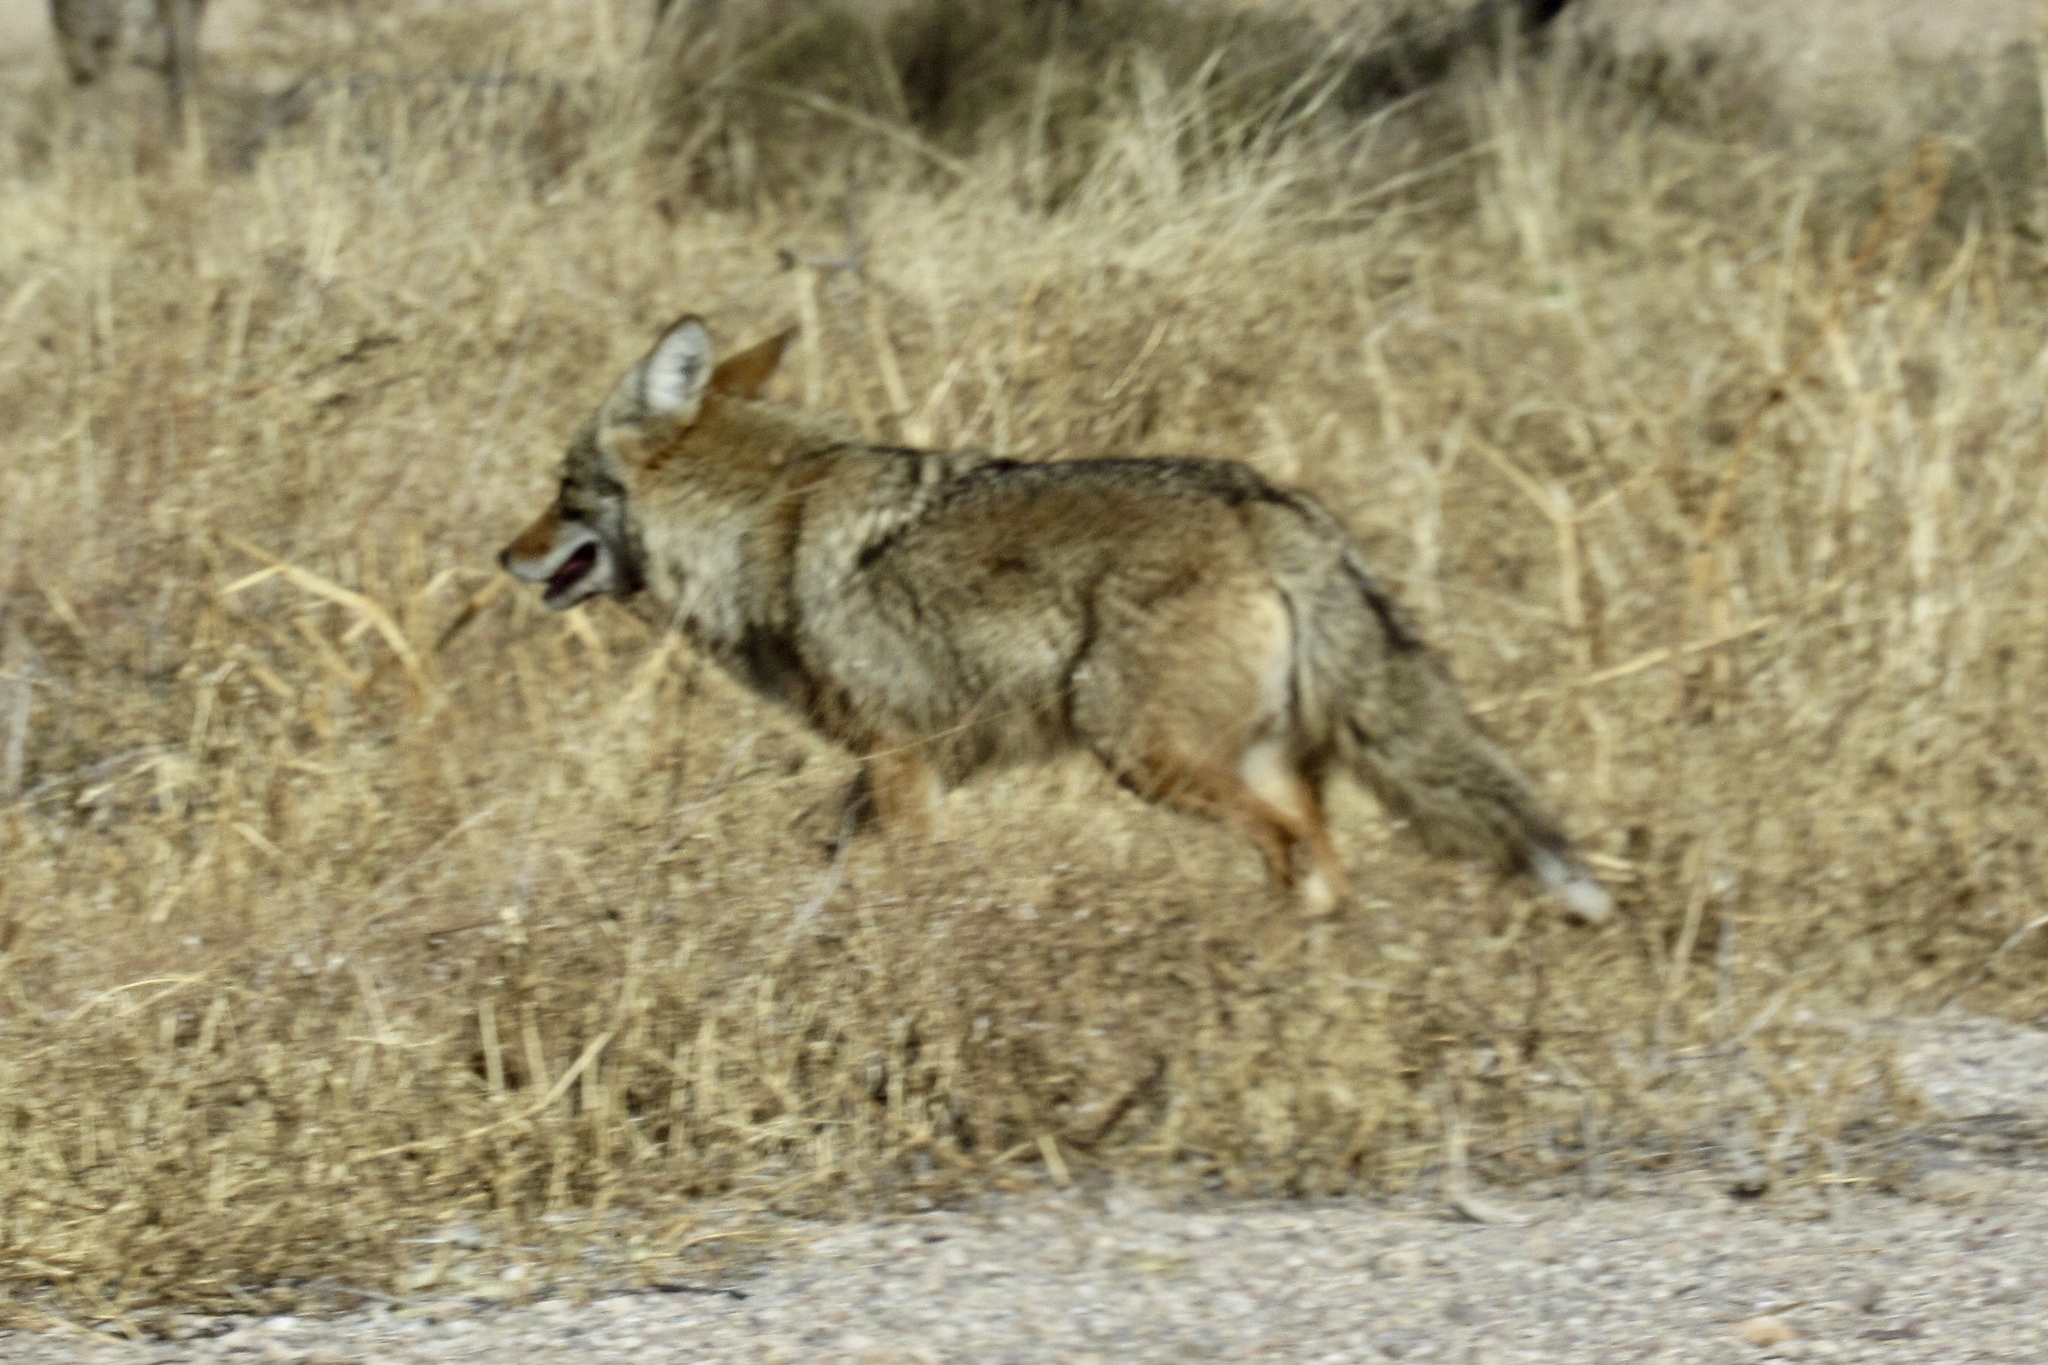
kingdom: Animalia
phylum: Chordata
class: Mammalia
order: Carnivora
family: Canidae
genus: Canis
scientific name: Canis latrans
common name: Coyote
